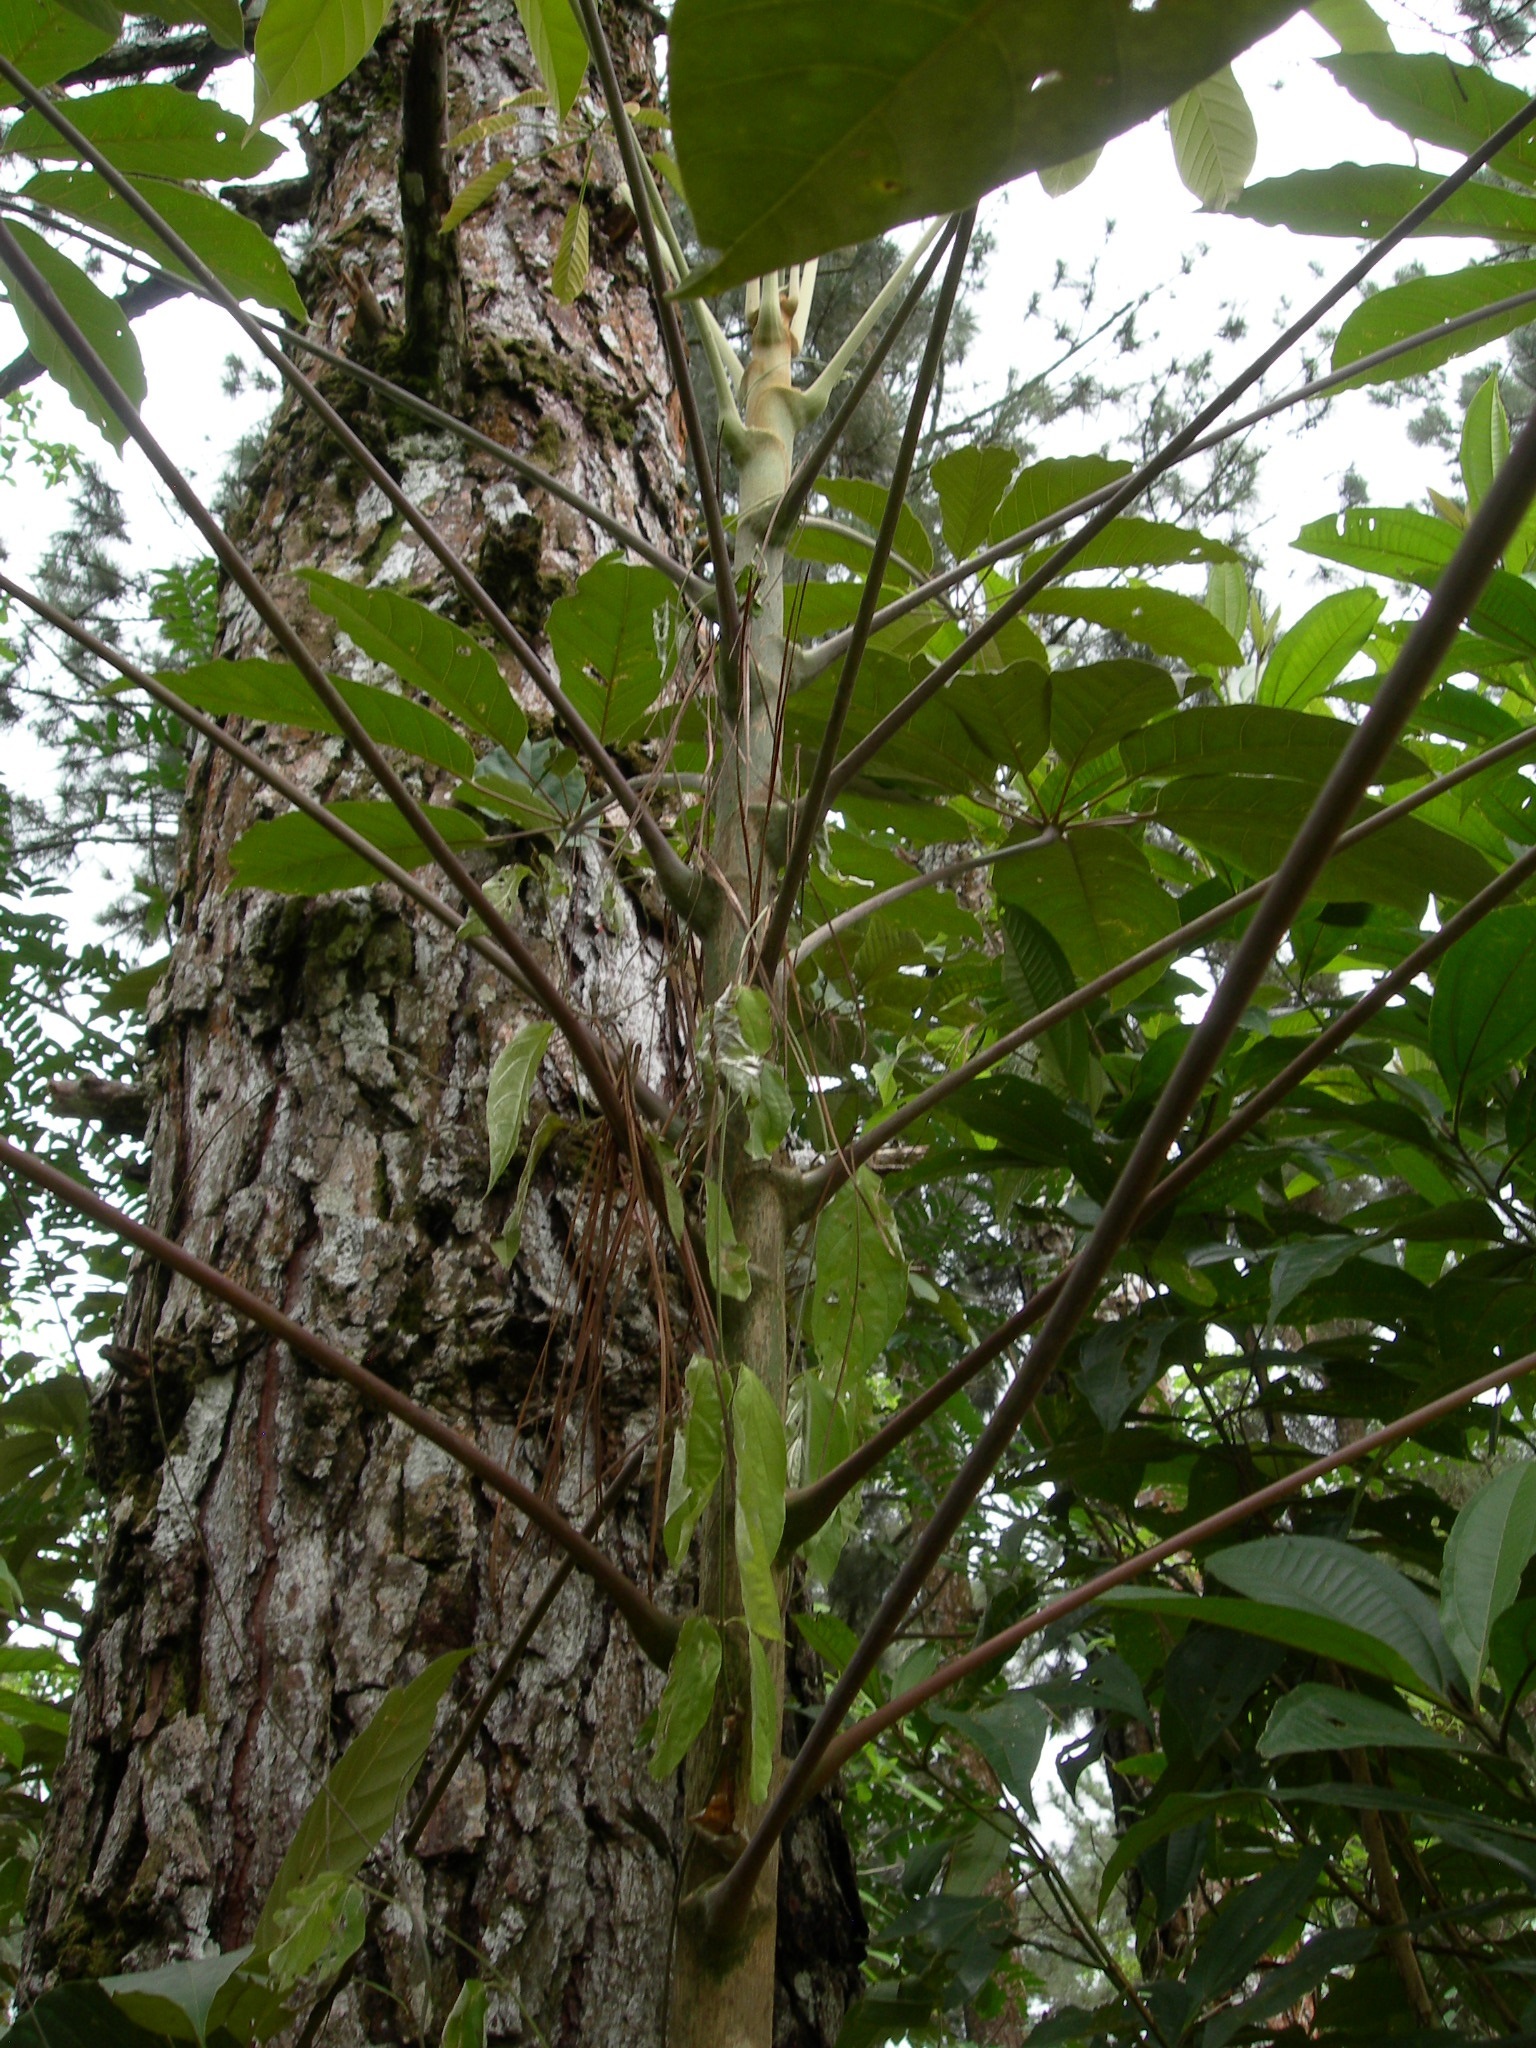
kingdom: Plantae
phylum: Tracheophyta
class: Magnoliopsida
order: Apiales
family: Araliaceae
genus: Didymopanax
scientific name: Didymopanax morototoni
